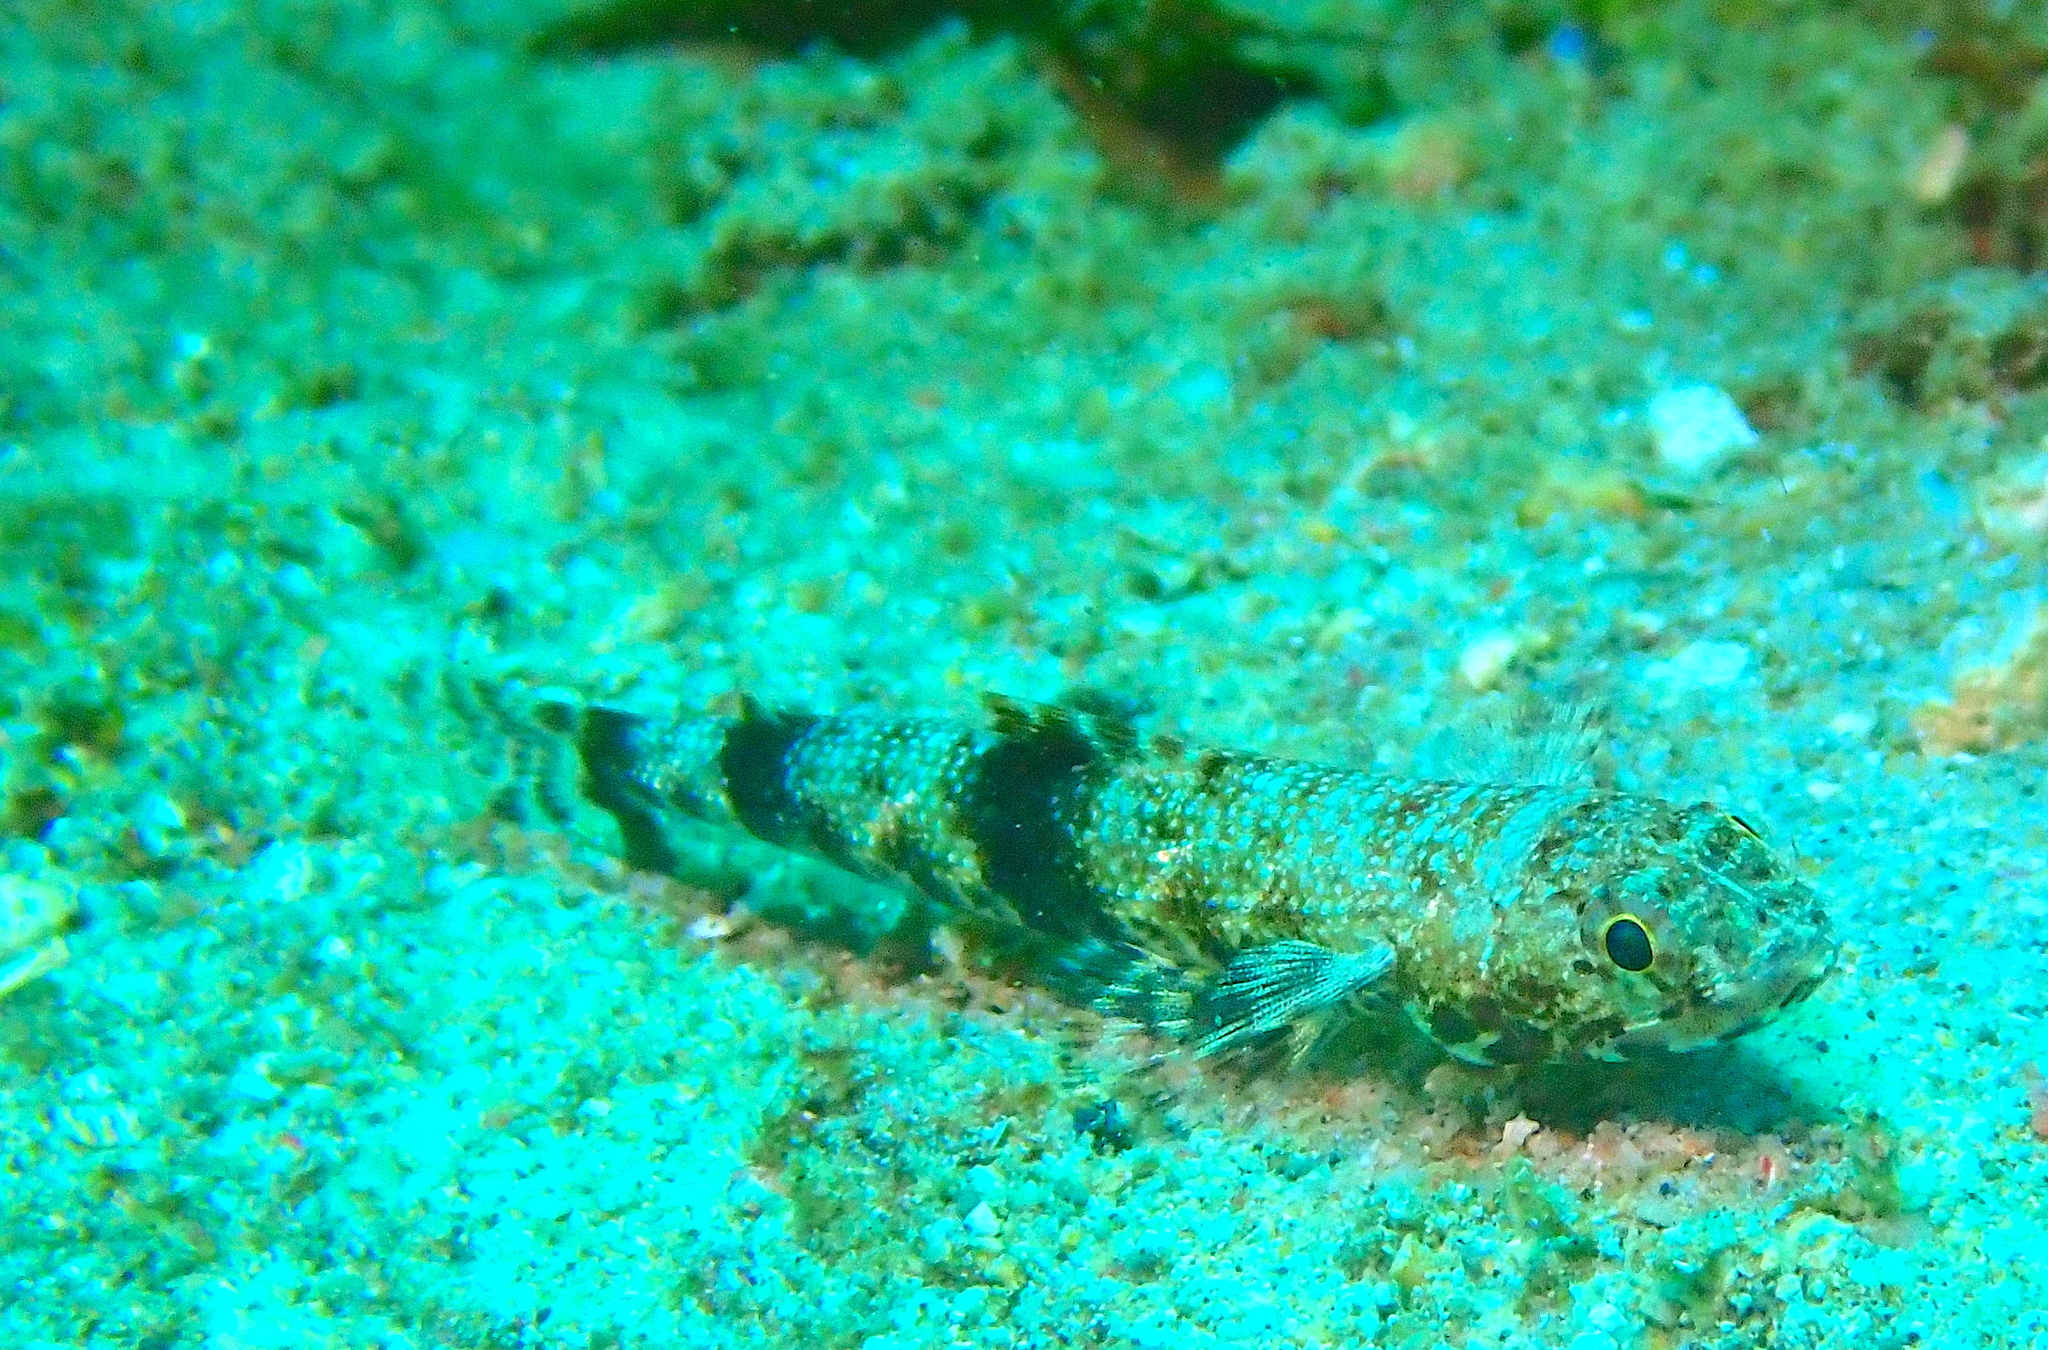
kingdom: Animalia
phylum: Chordata
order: Aulopiformes
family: Synodontidae
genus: Saurida
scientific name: Saurida gracilis
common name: Slender lizardfish
